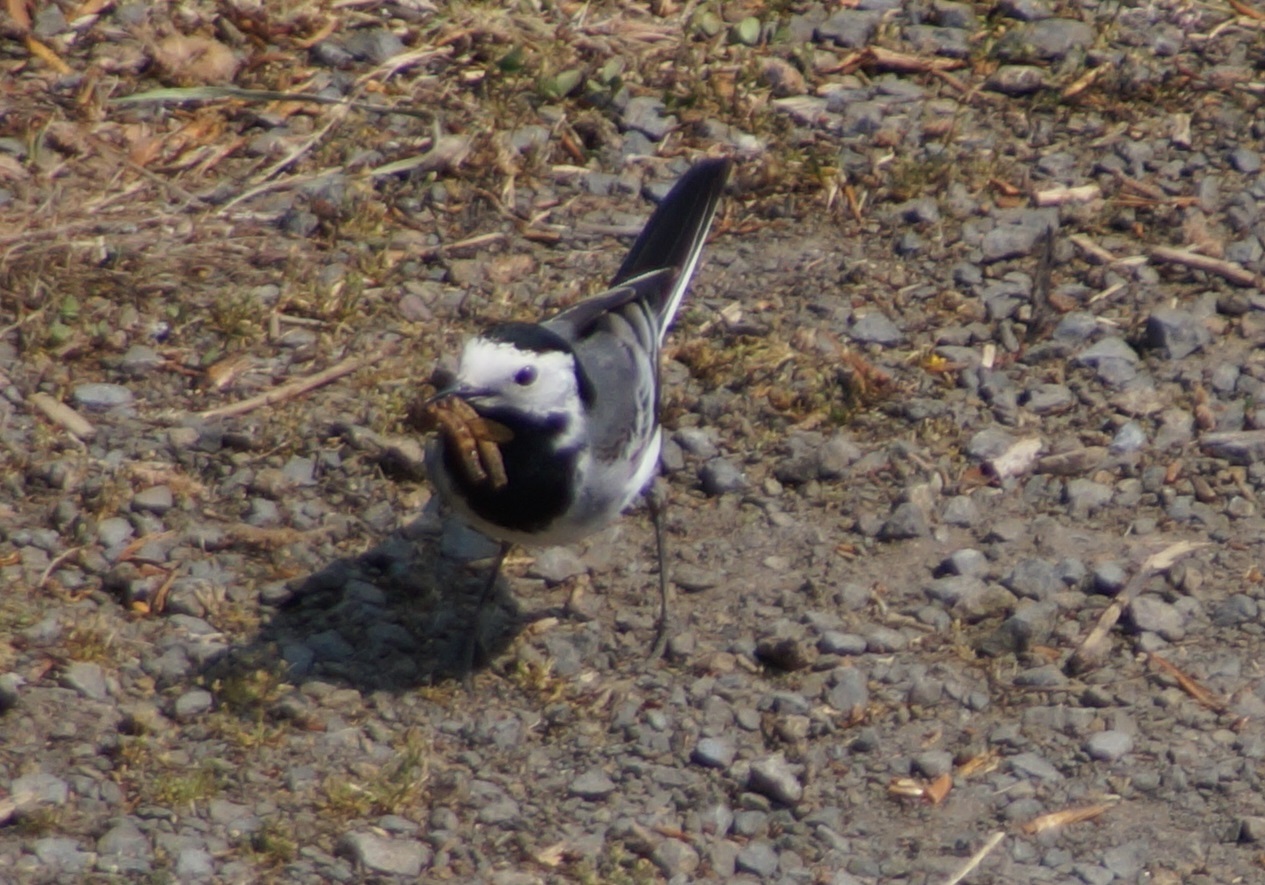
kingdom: Animalia
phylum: Chordata
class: Aves
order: Passeriformes
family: Motacillidae
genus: Motacilla
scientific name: Motacilla alba
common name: White wagtail
